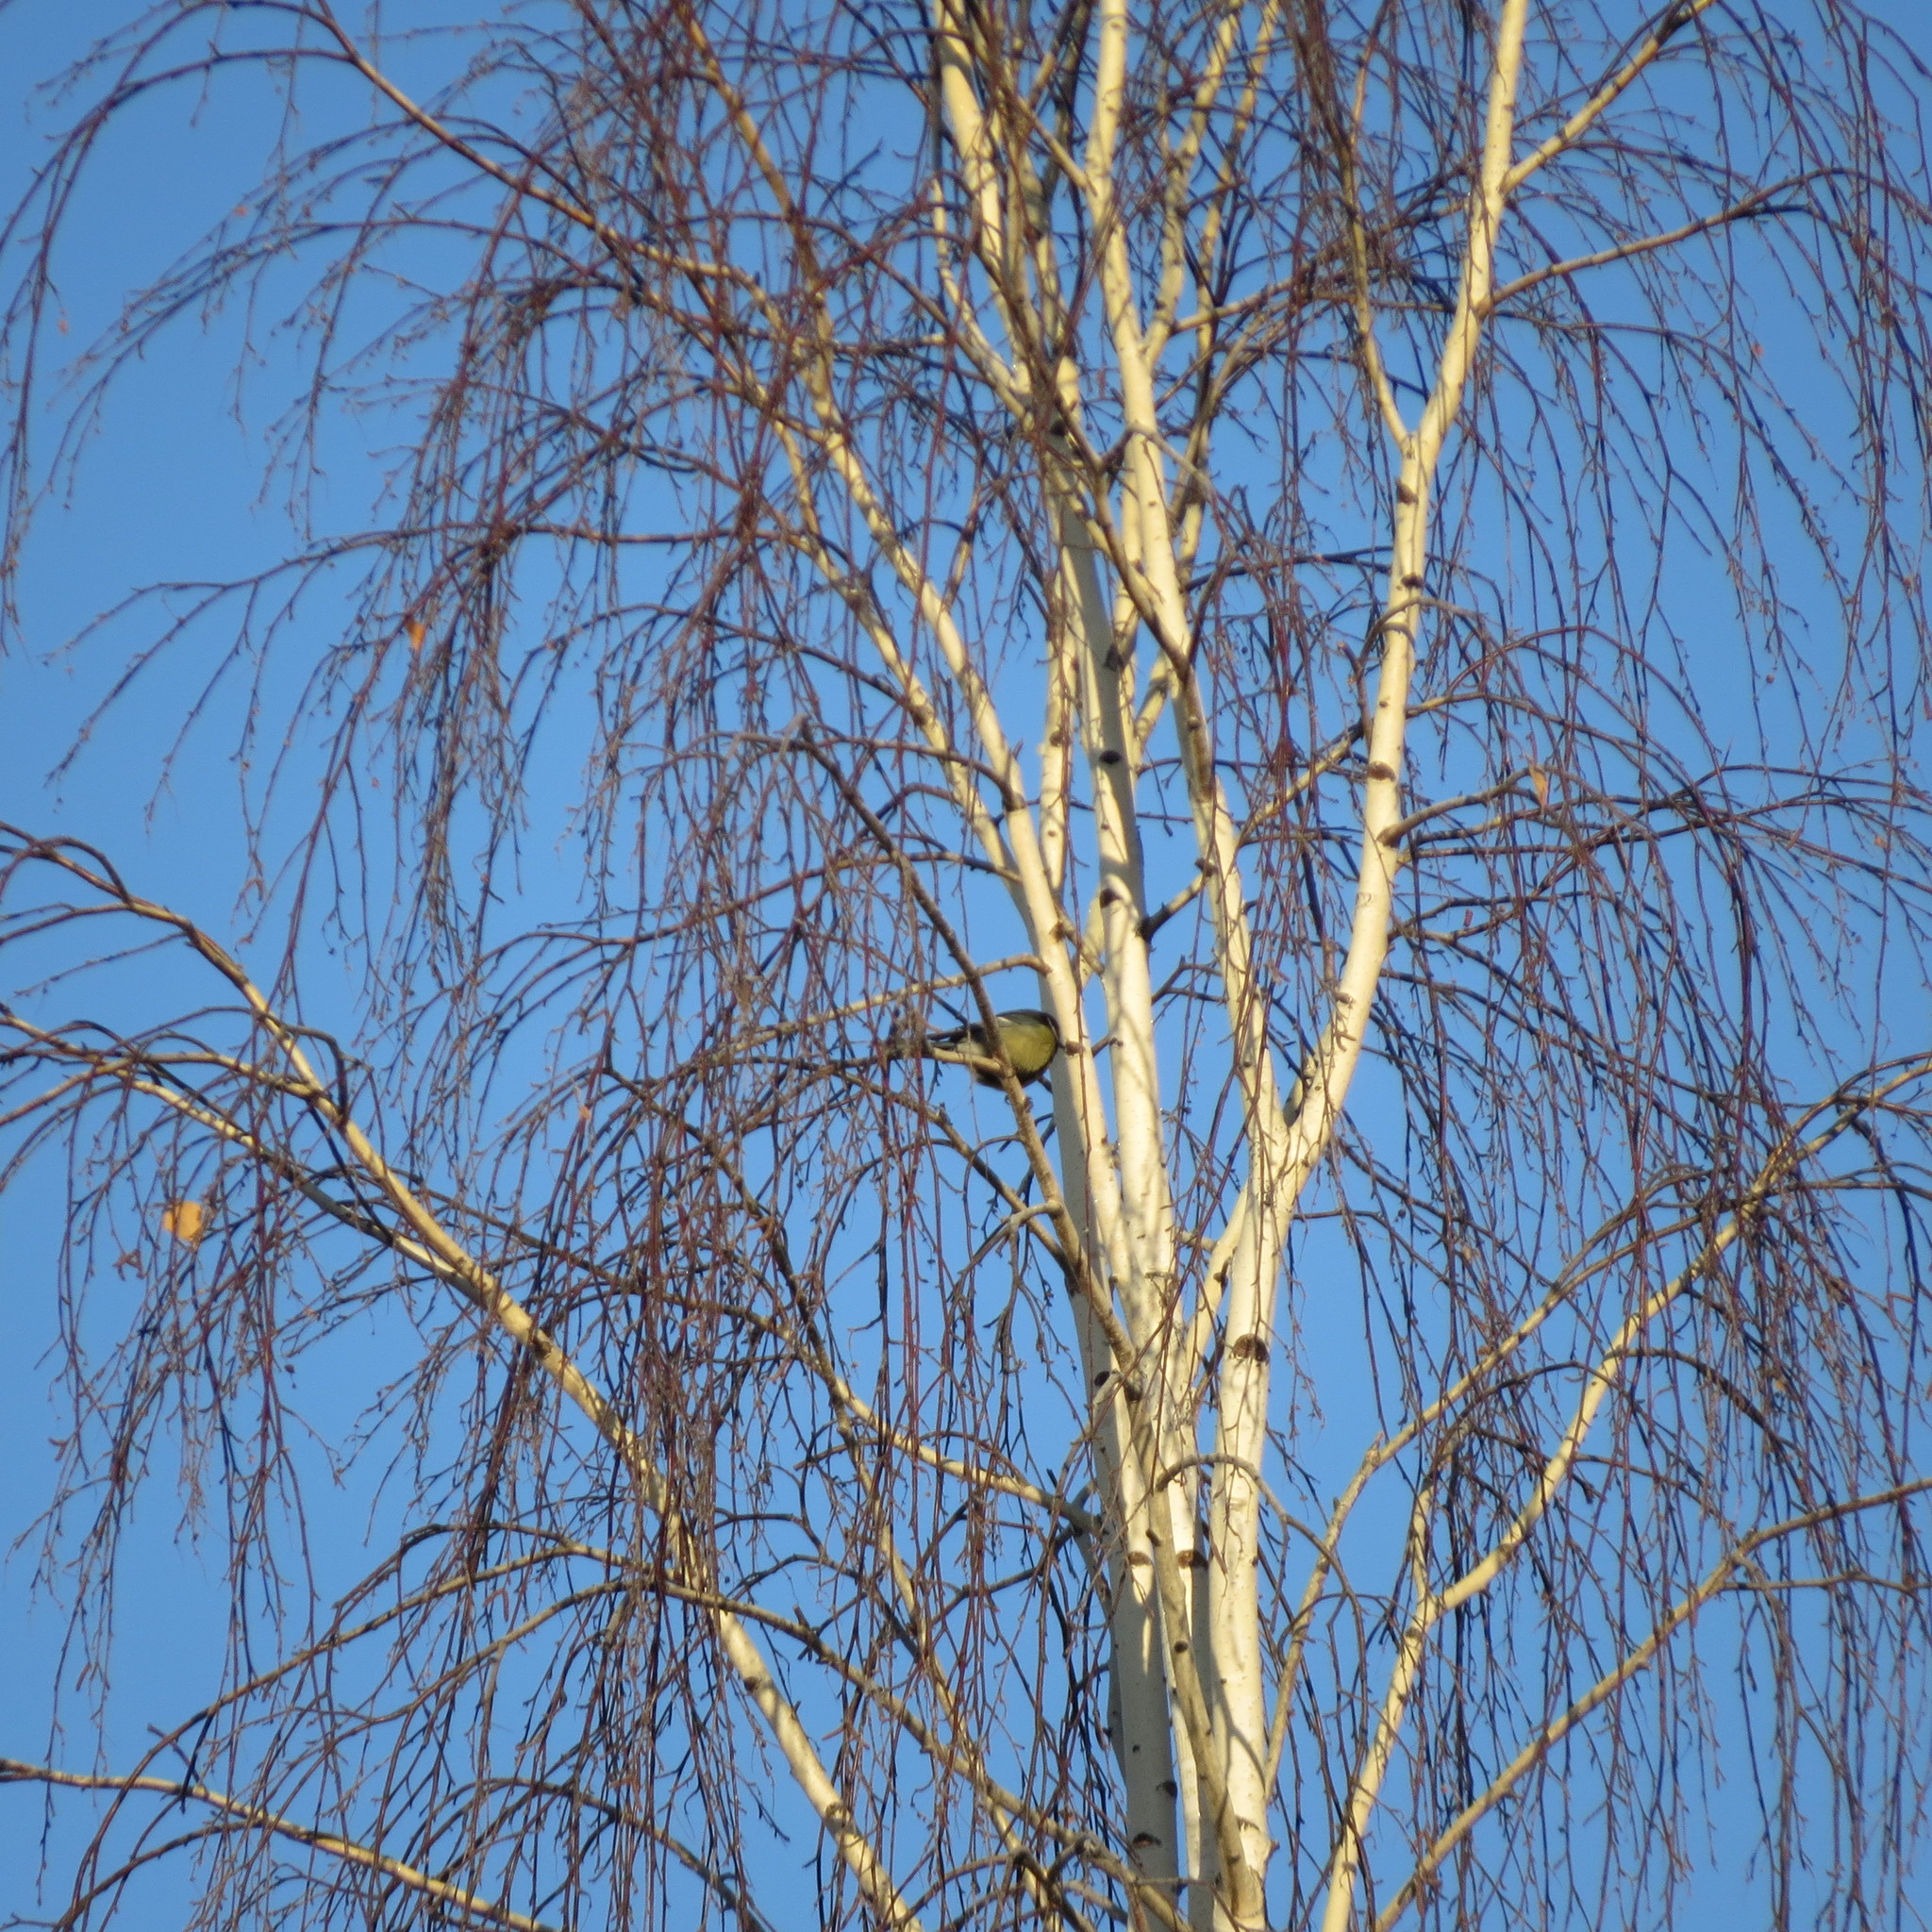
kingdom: Animalia
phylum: Chordata
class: Aves
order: Passeriformes
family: Paridae
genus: Parus
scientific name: Parus major
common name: Great tit
